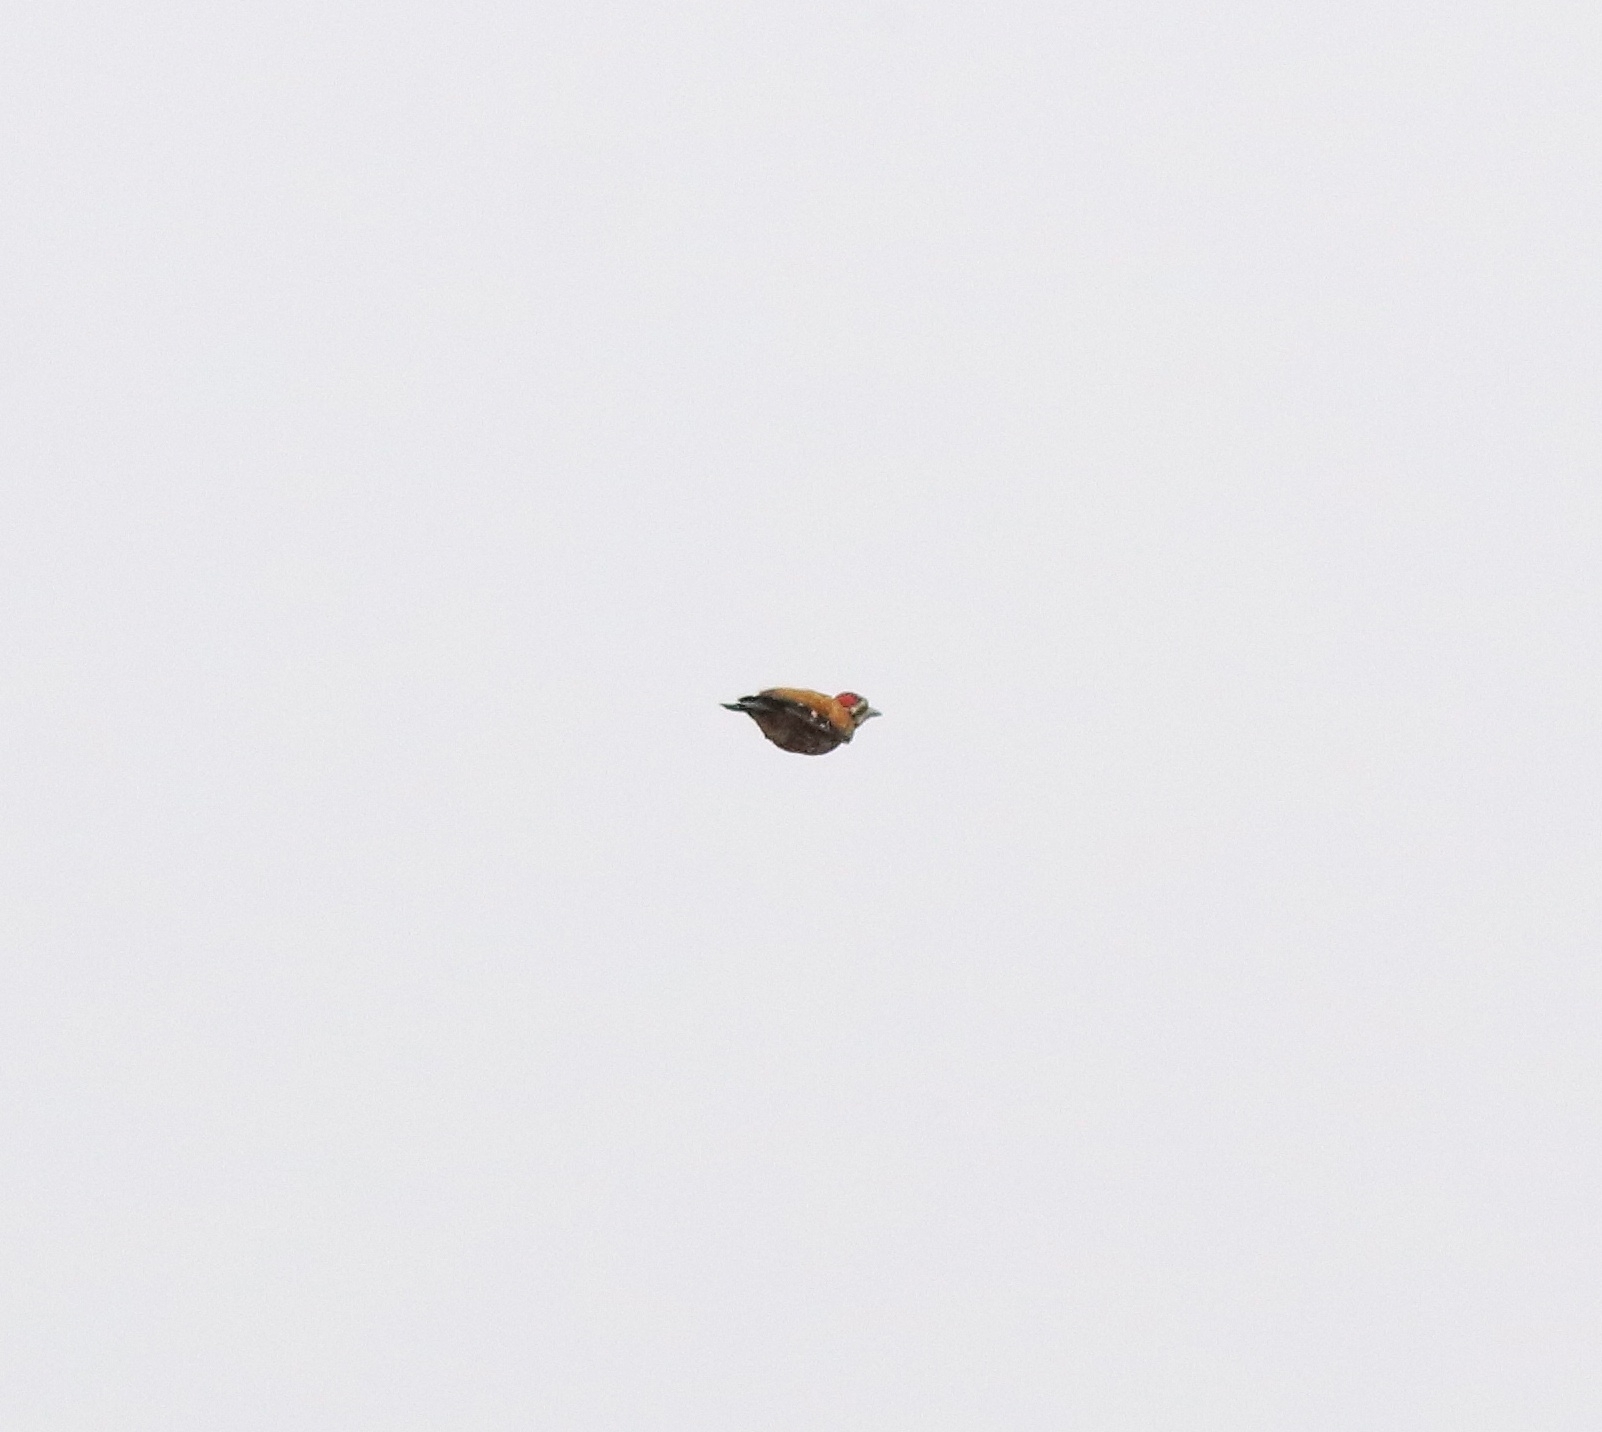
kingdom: Animalia
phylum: Chordata
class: Aves
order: Piciformes
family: Picidae
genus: Dinopium
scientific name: Dinopium benghalense
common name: Black-rumped flameback
